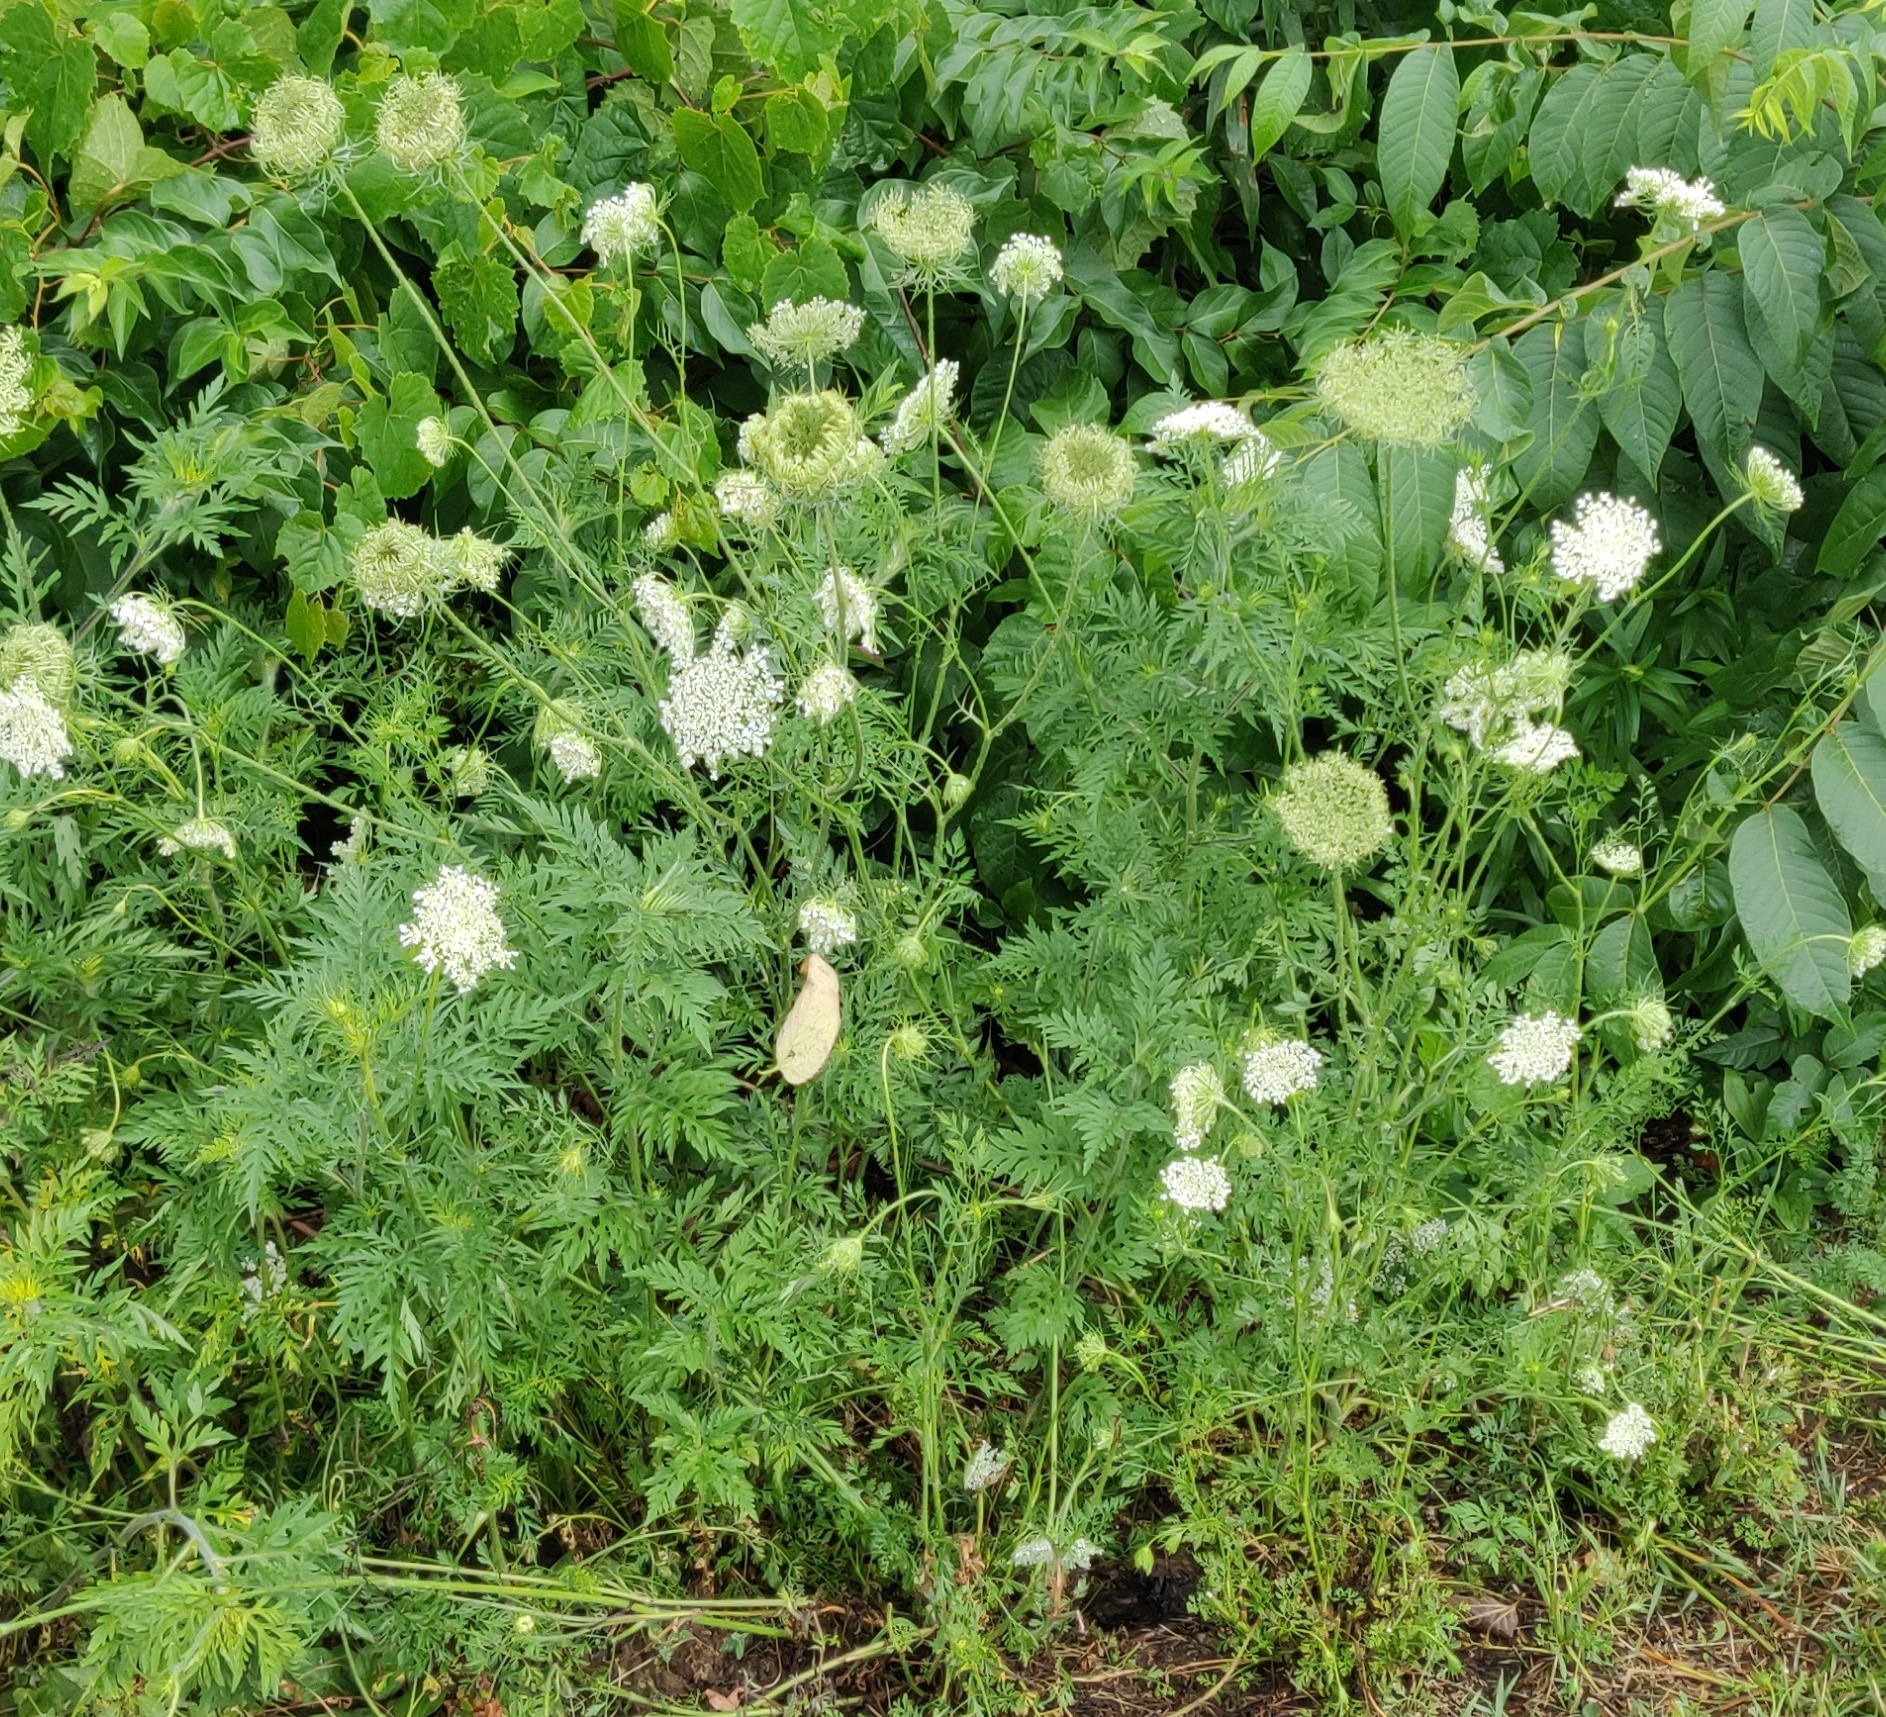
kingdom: Plantae
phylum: Tracheophyta
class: Magnoliopsida
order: Apiales
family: Apiaceae
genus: Daucus
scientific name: Daucus carota
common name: Wild carrot
